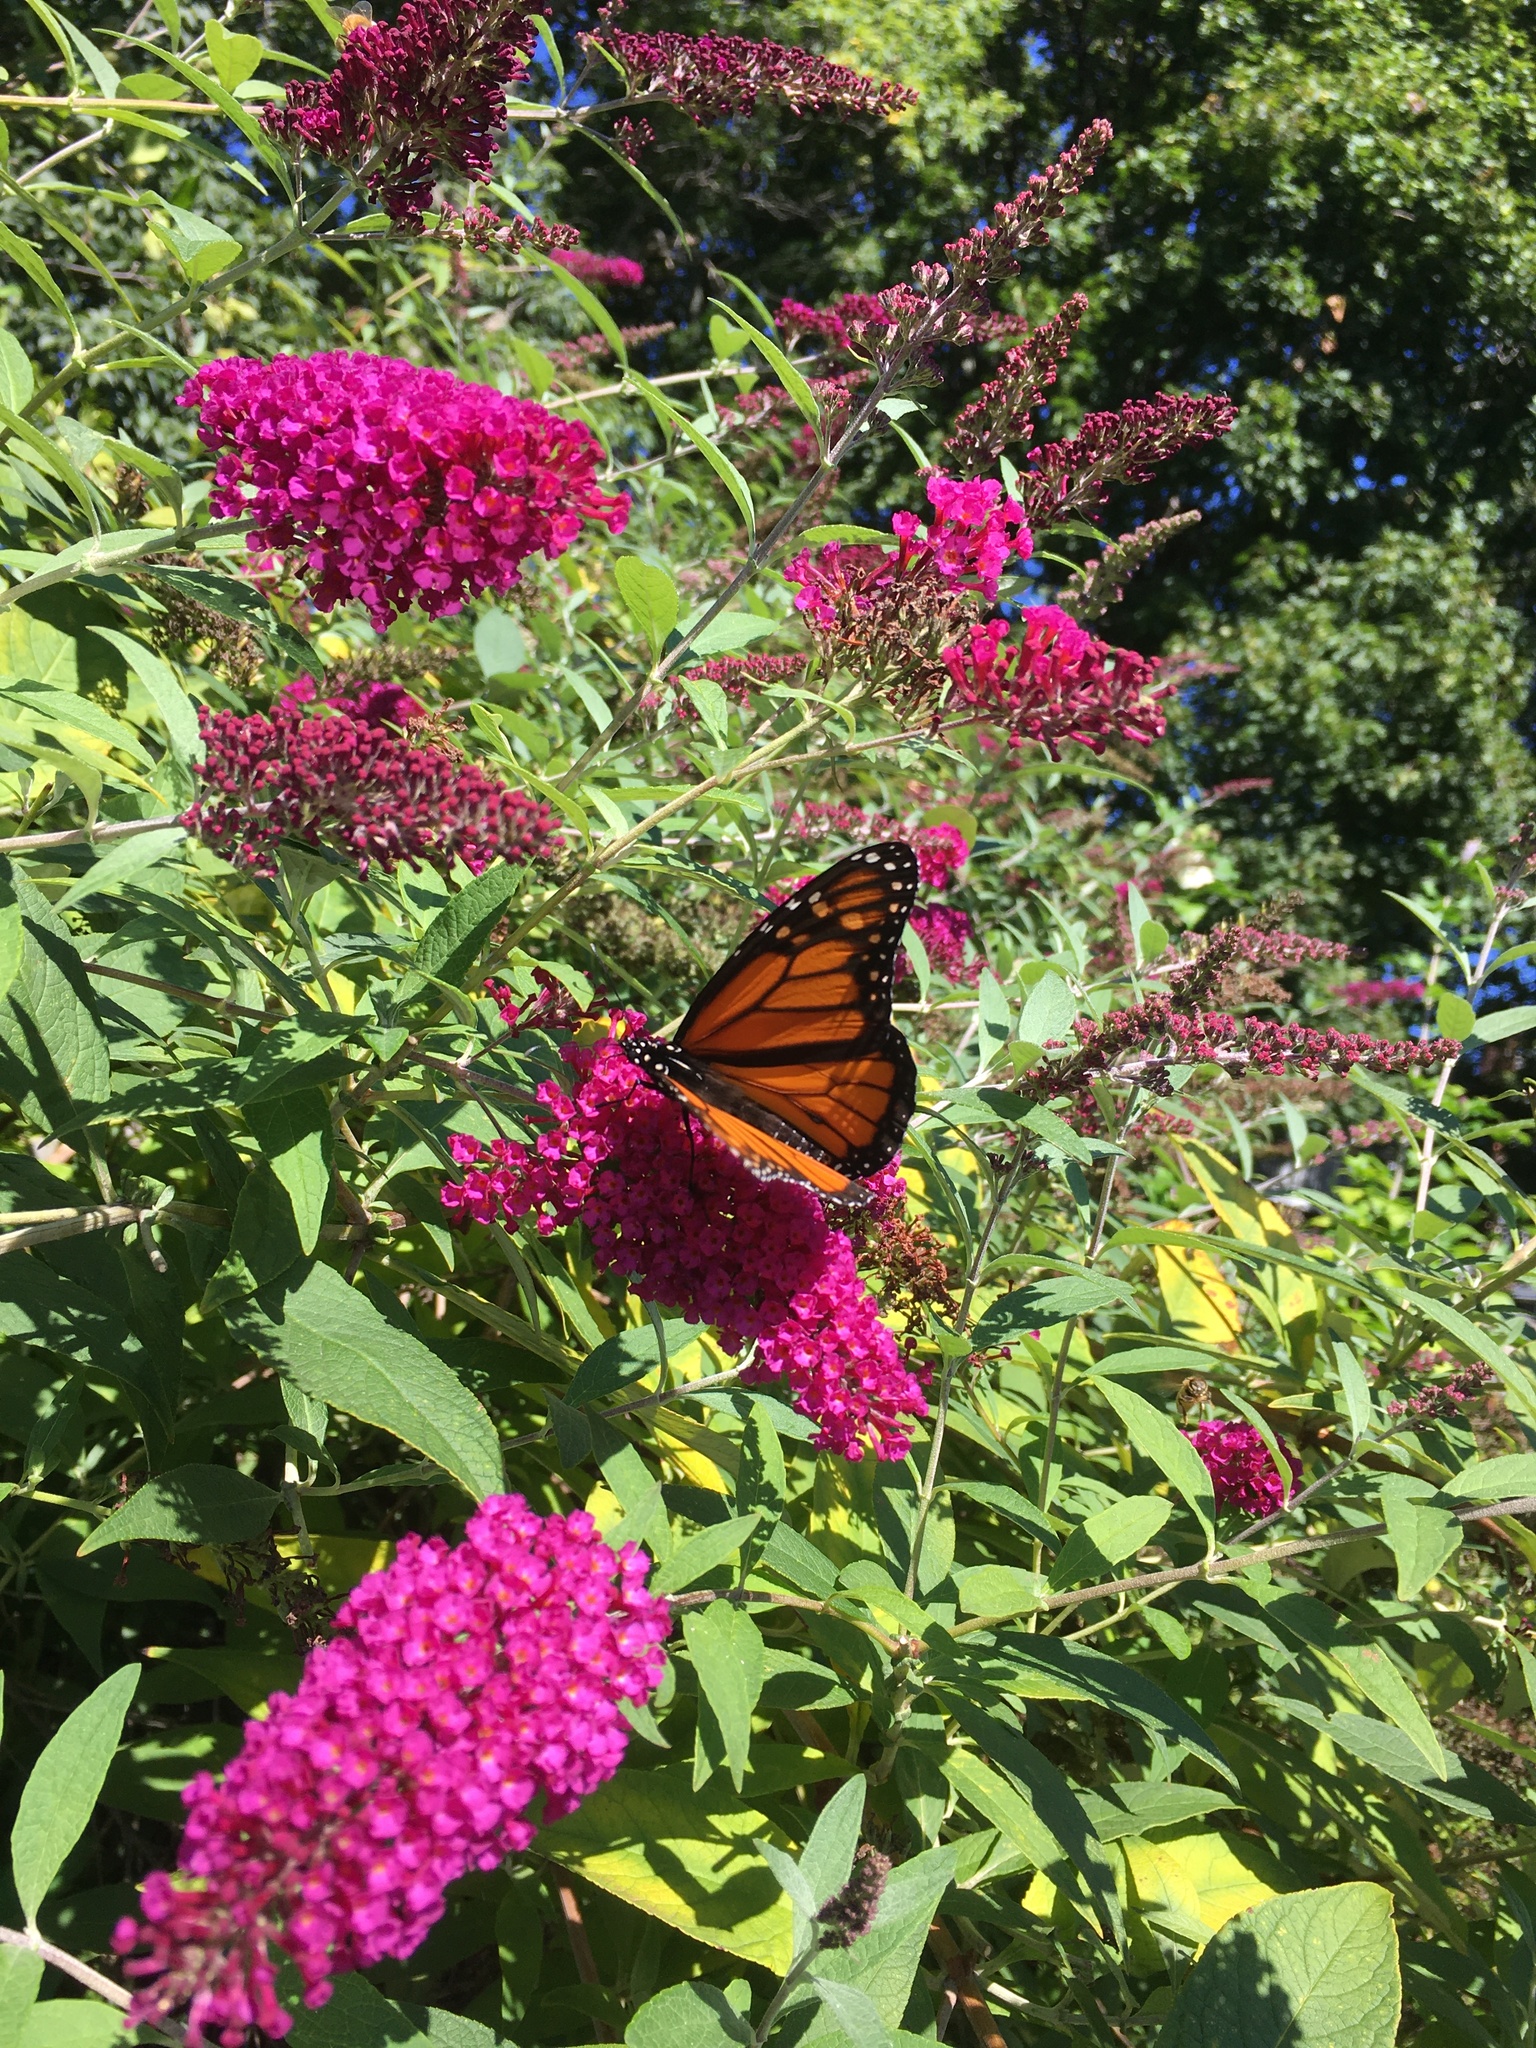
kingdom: Animalia
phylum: Arthropoda
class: Insecta
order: Lepidoptera
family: Nymphalidae
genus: Danaus
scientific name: Danaus plexippus
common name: Monarch
